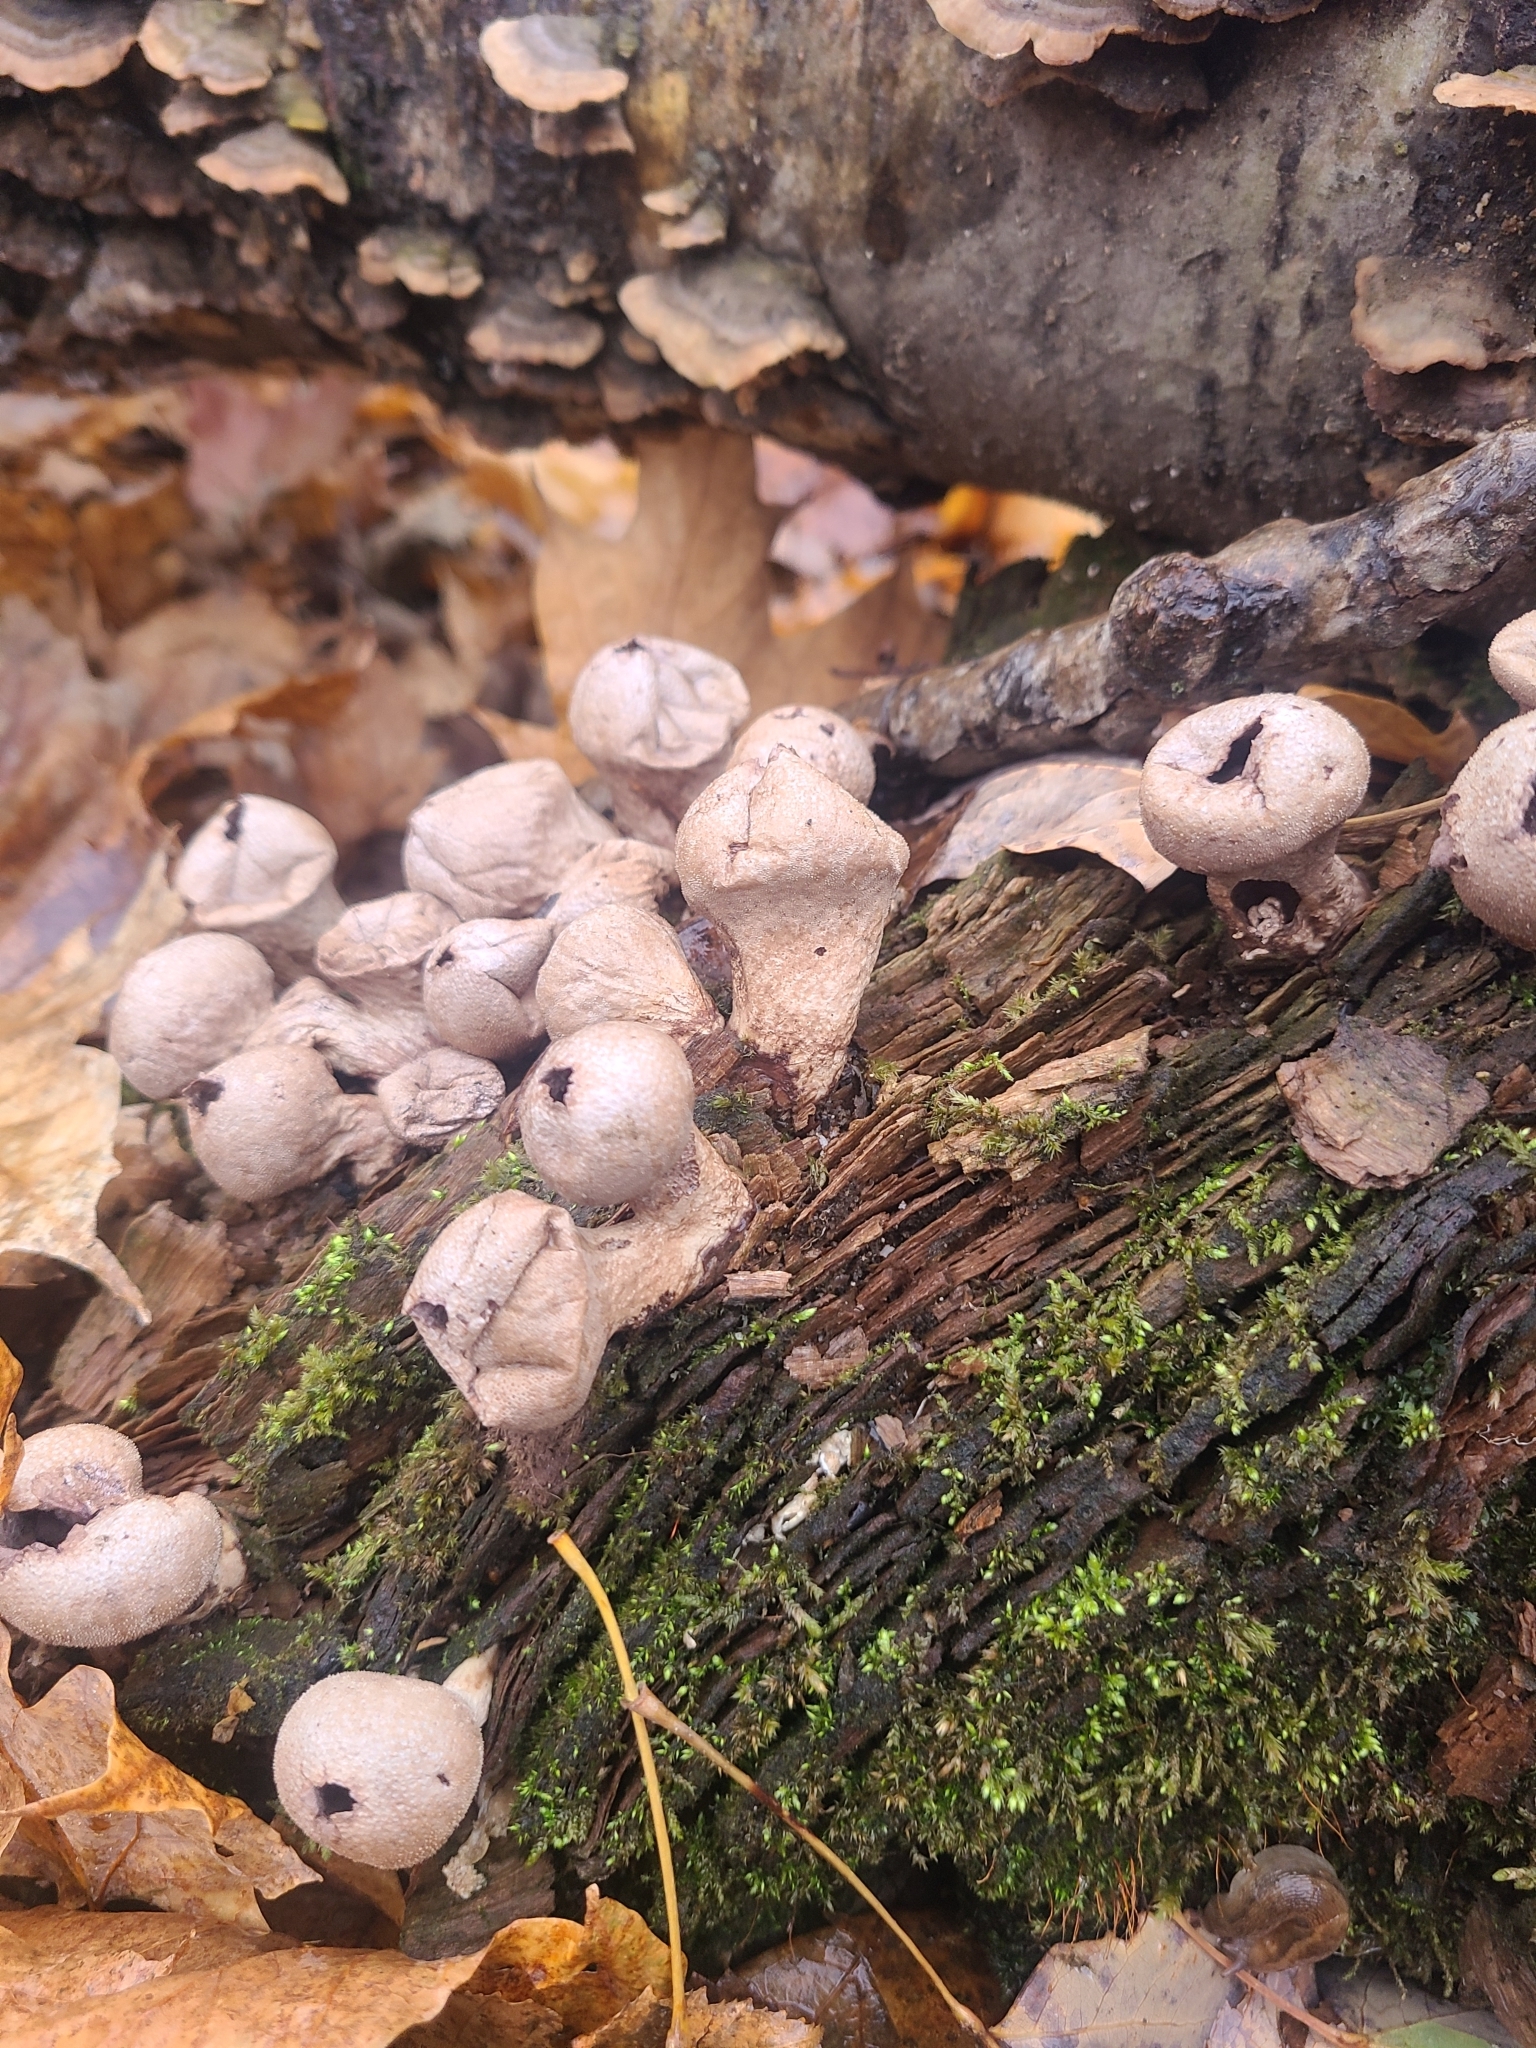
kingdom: Fungi
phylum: Basidiomycota
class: Agaricomycetes
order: Agaricales
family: Lycoperdaceae
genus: Apioperdon
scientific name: Apioperdon pyriforme
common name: Pear-shaped puffball
